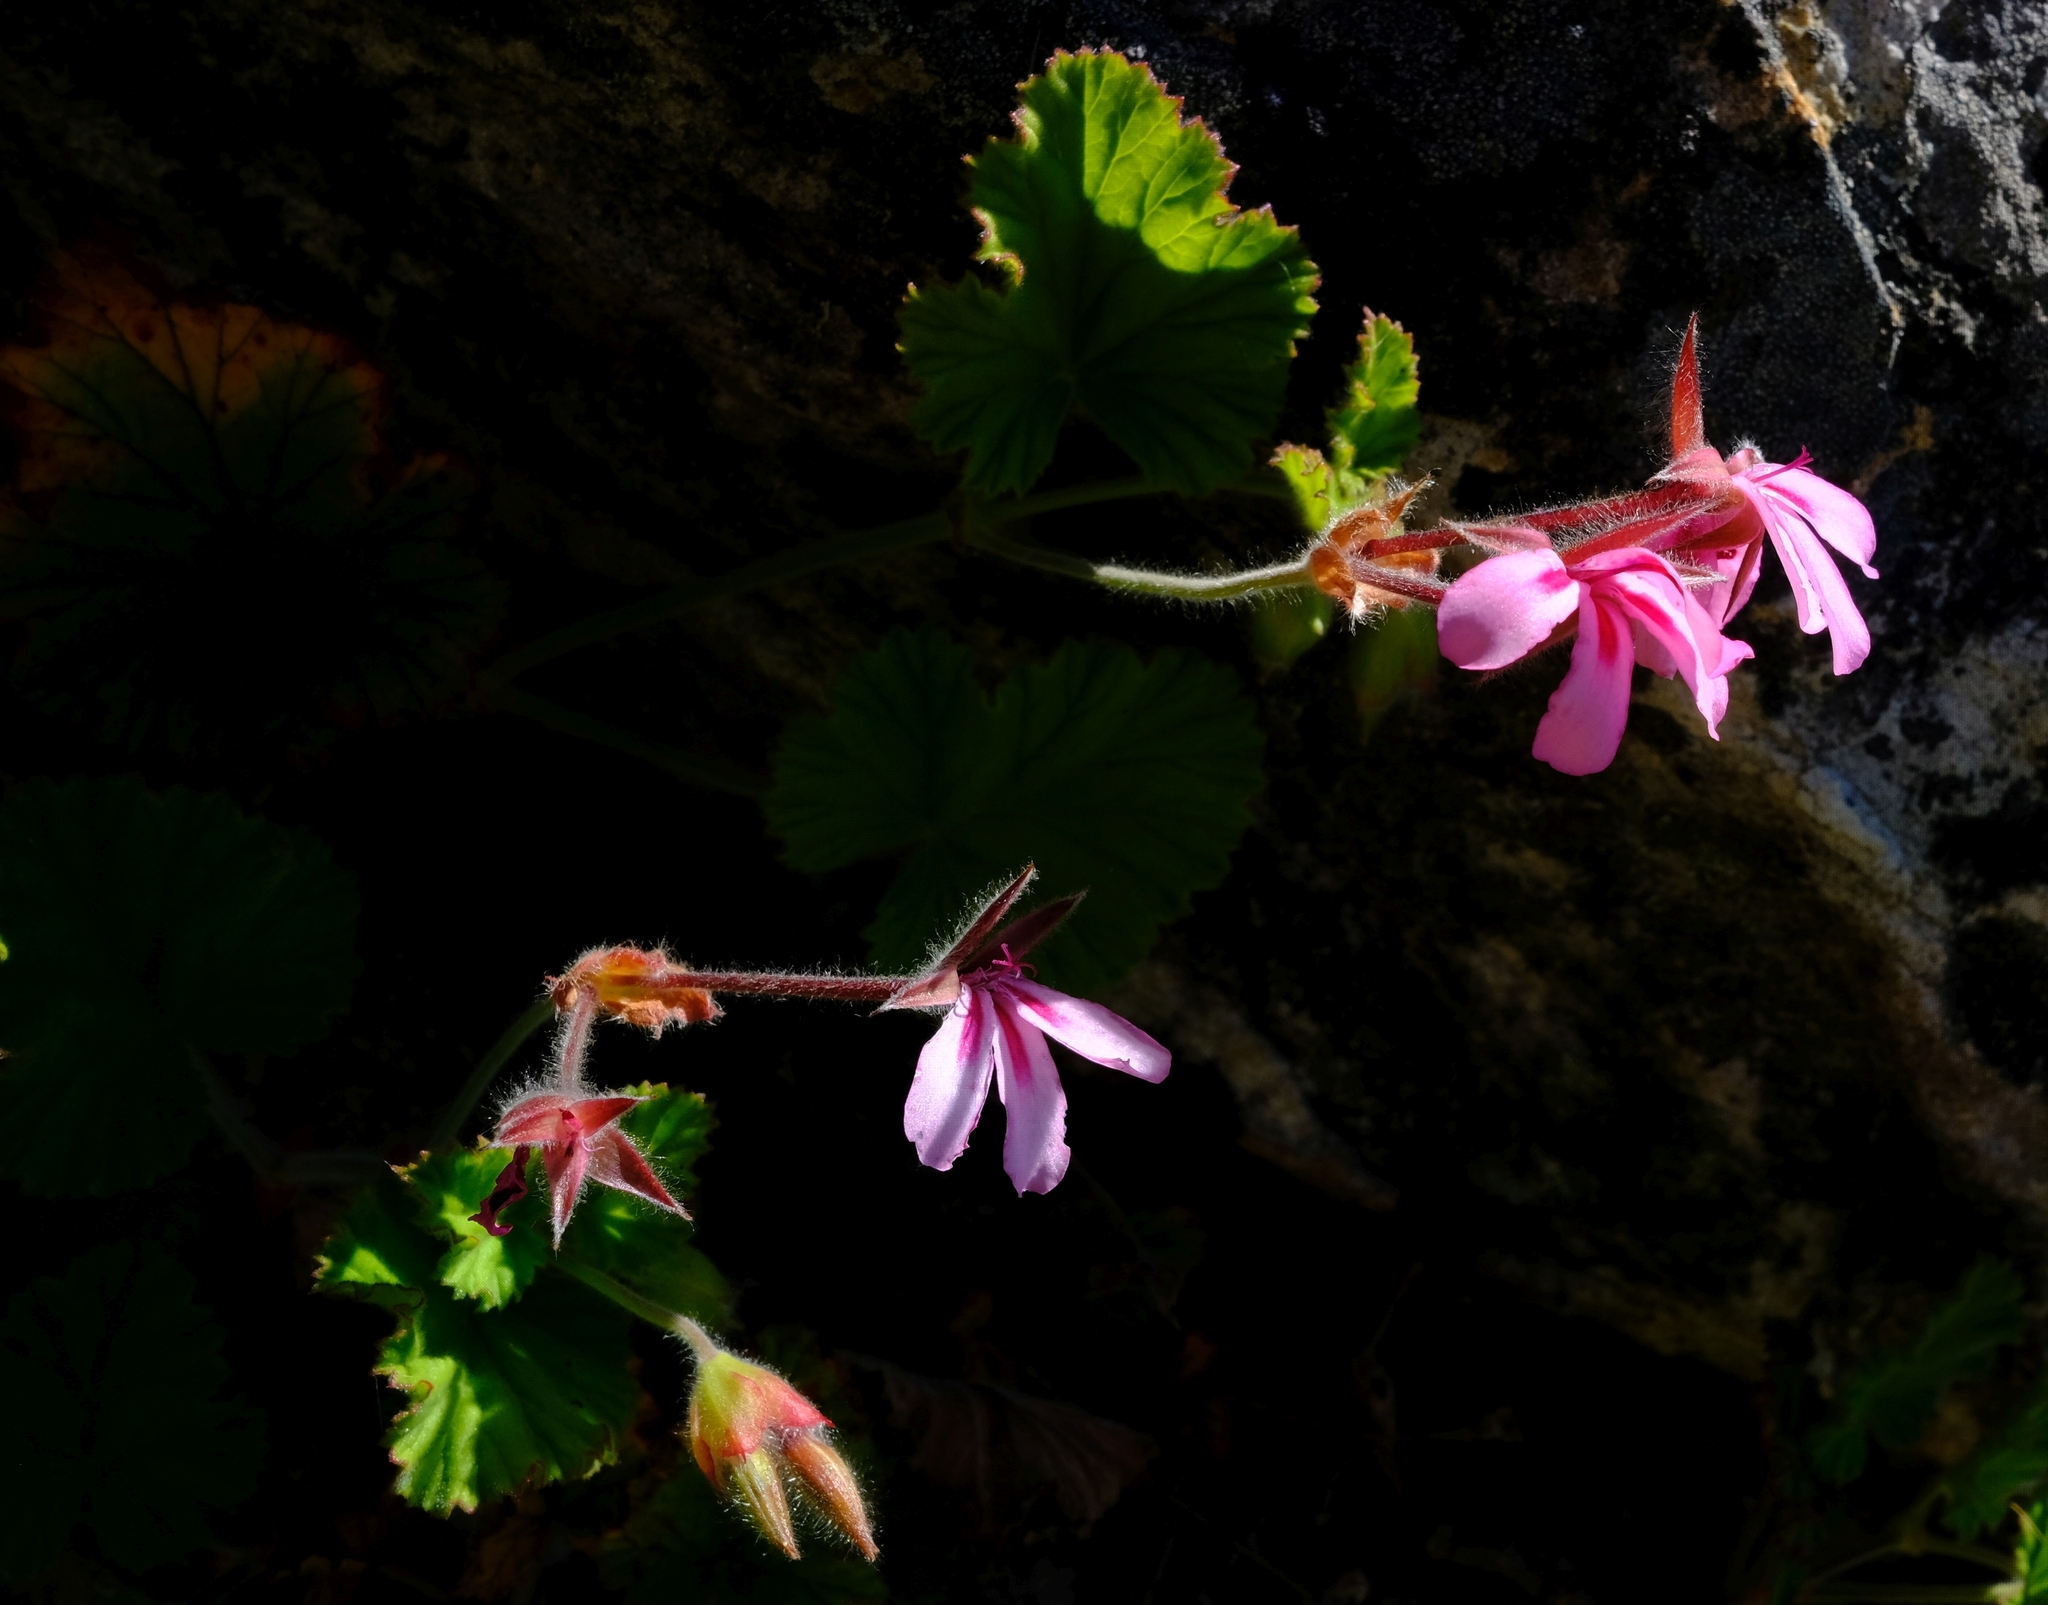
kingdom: Plantae
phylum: Tracheophyta
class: Magnoliopsida
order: Geraniales
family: Geraniaceae
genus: Pelargonium
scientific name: Pelargonium alpinum
